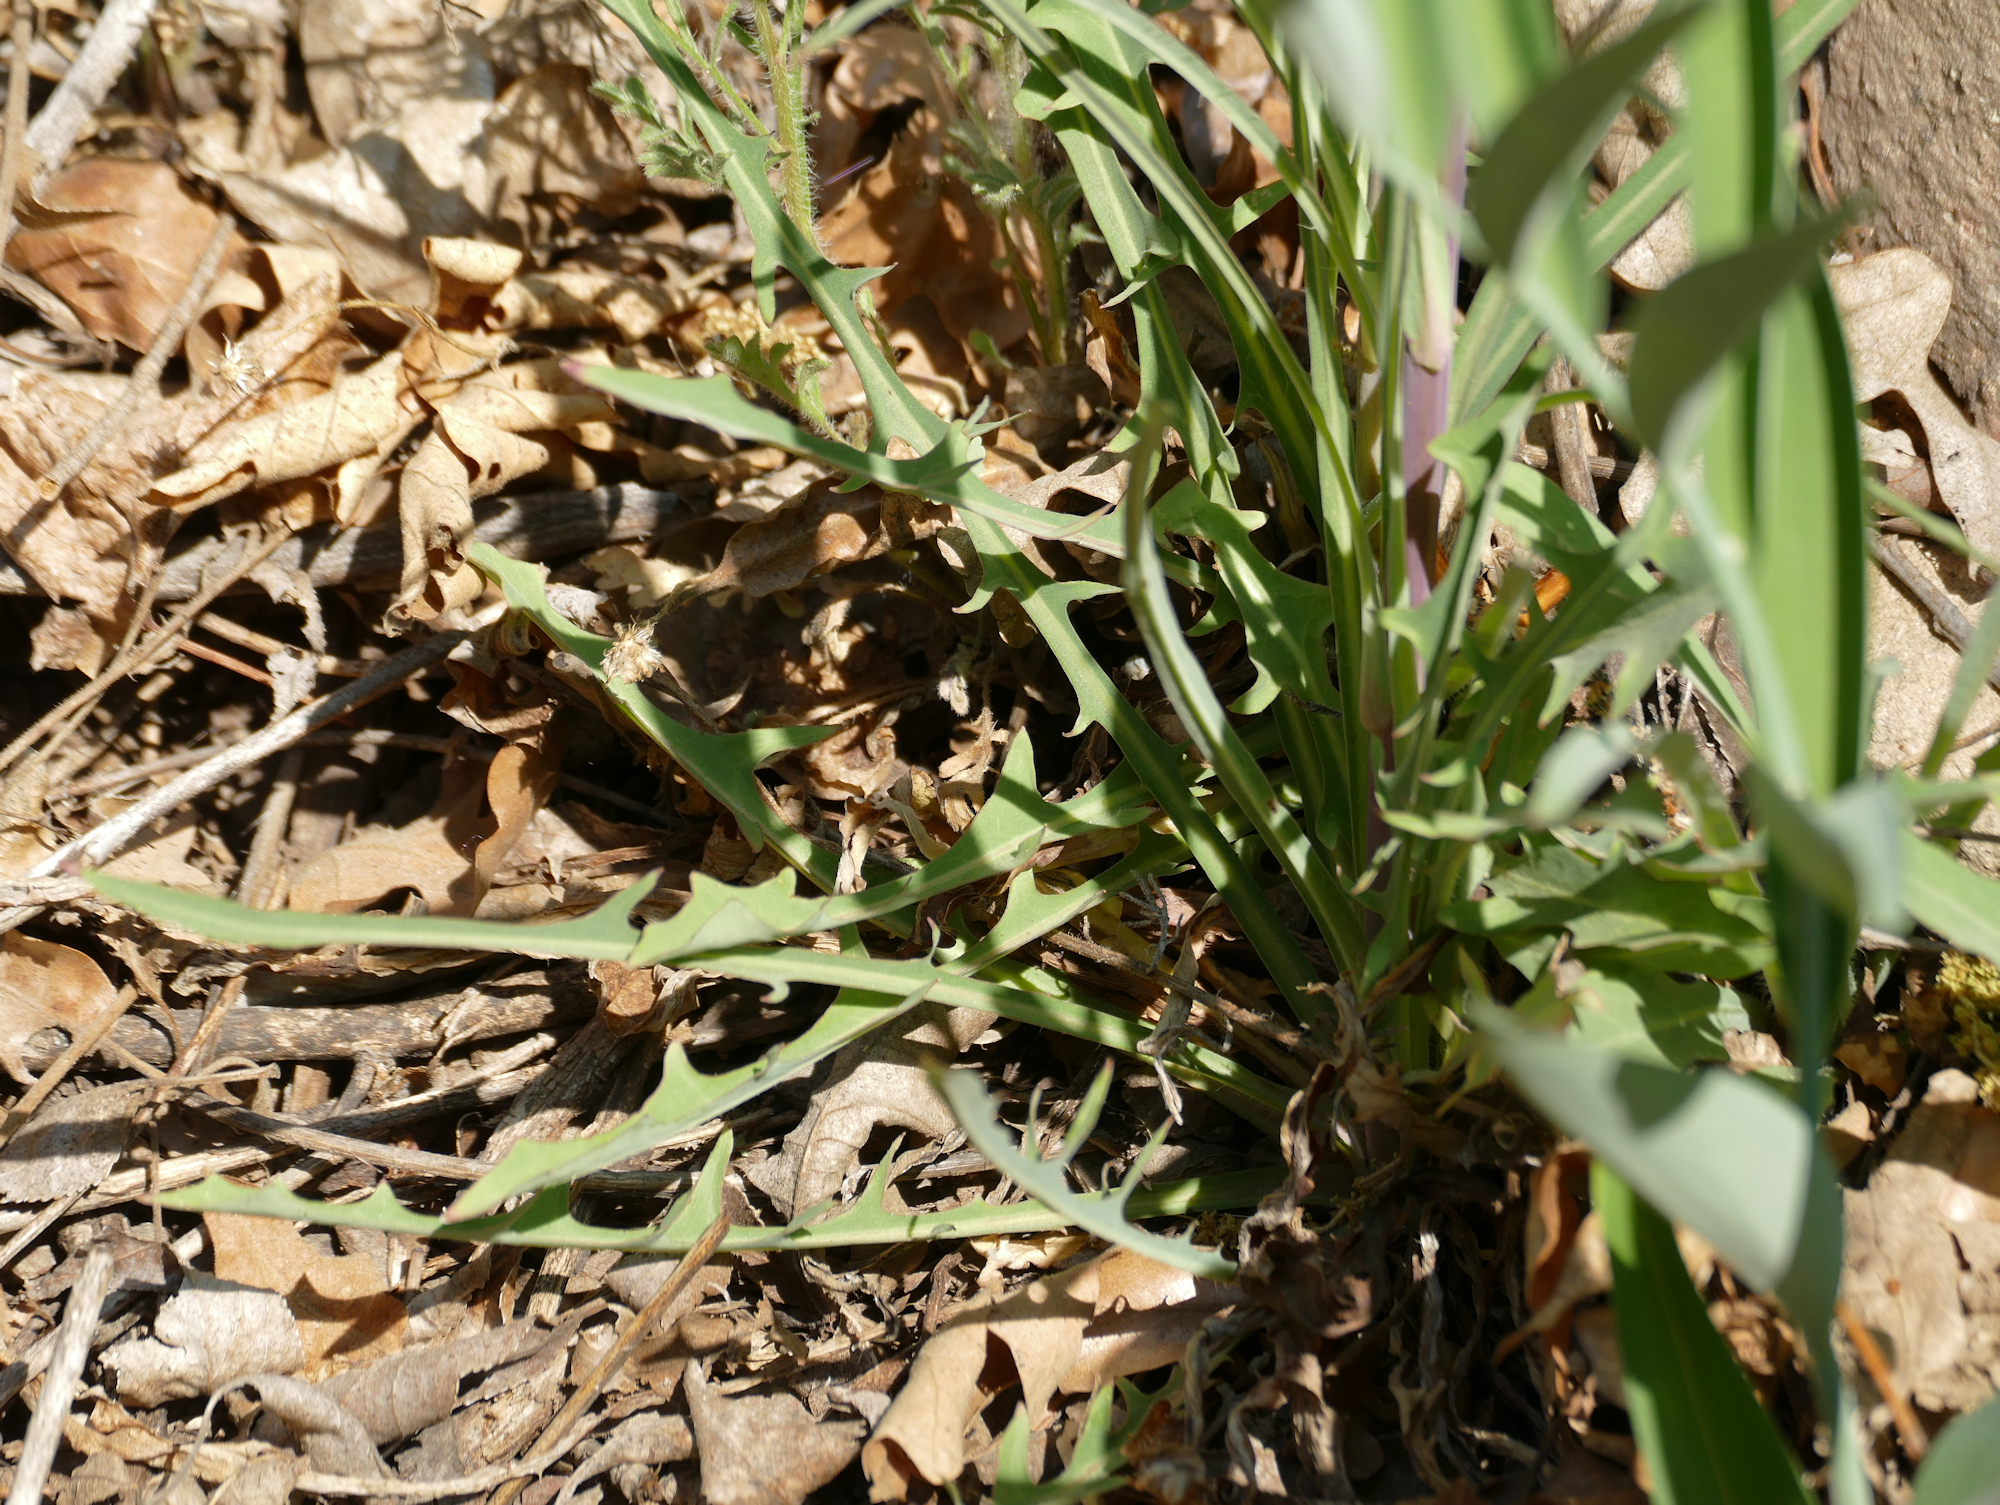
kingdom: Plantae
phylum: Tracheophyta
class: Magnoliopsida
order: Asterales
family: Asteraceae
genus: Lactuca
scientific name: Lactuca graminifolia
